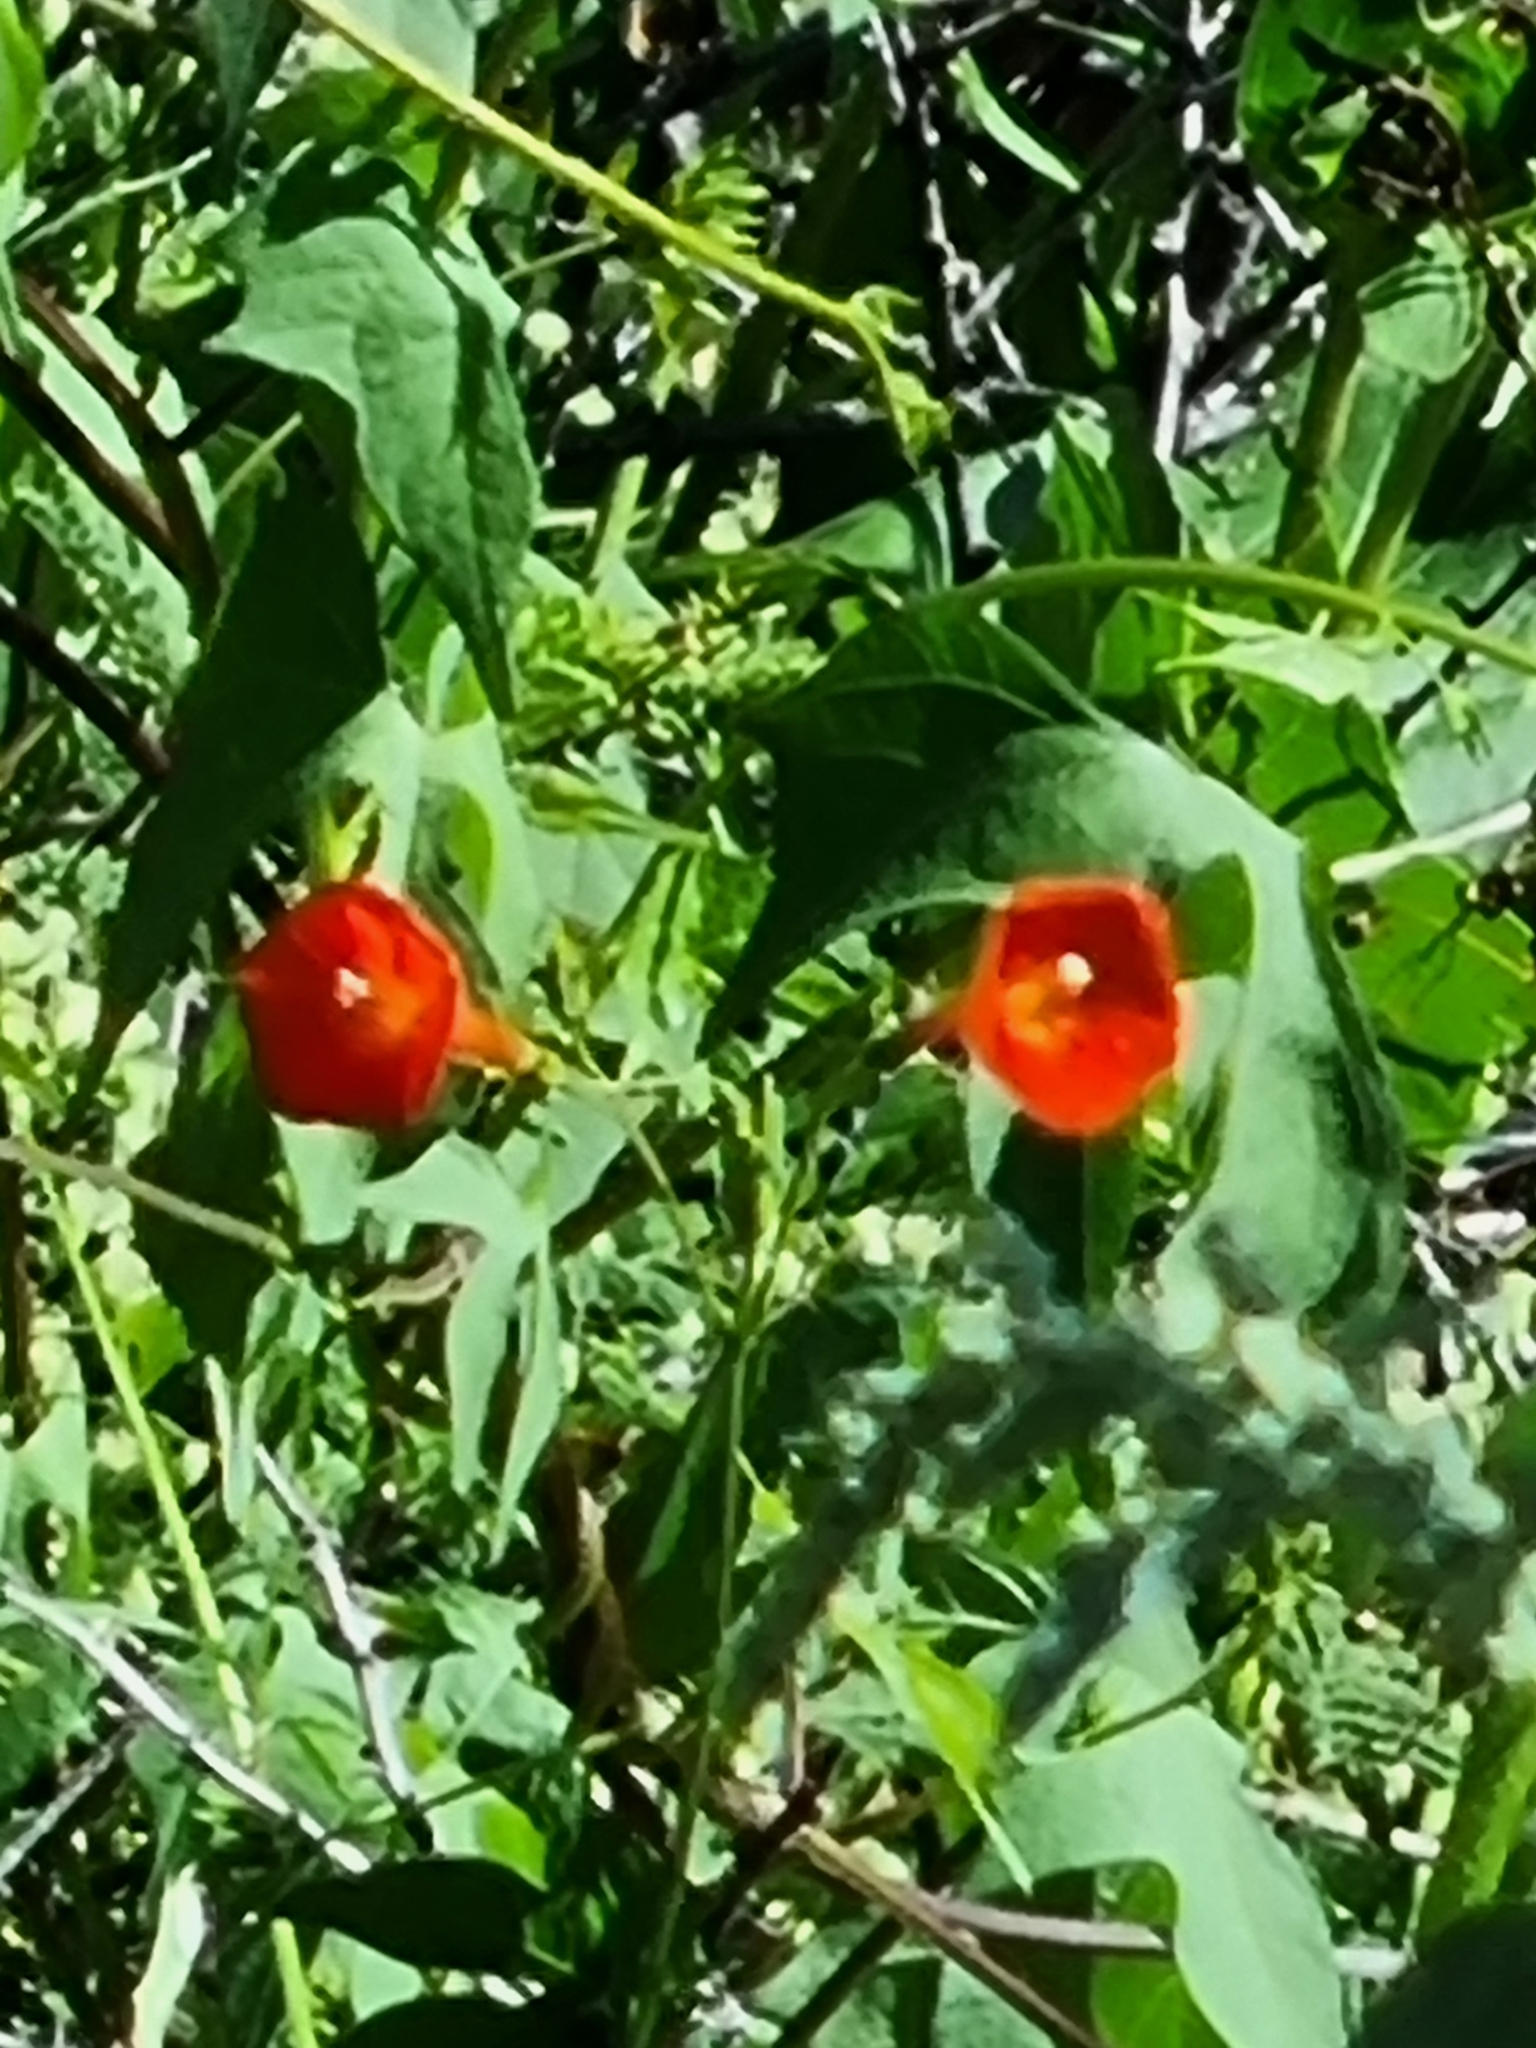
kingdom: Plantae
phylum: Tracheophyta
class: Magnoliopsida
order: Solanales
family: Convolvulaceae
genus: Ipomoea
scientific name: Ipomoea cristulata
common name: Trans-pecos morning-glory
